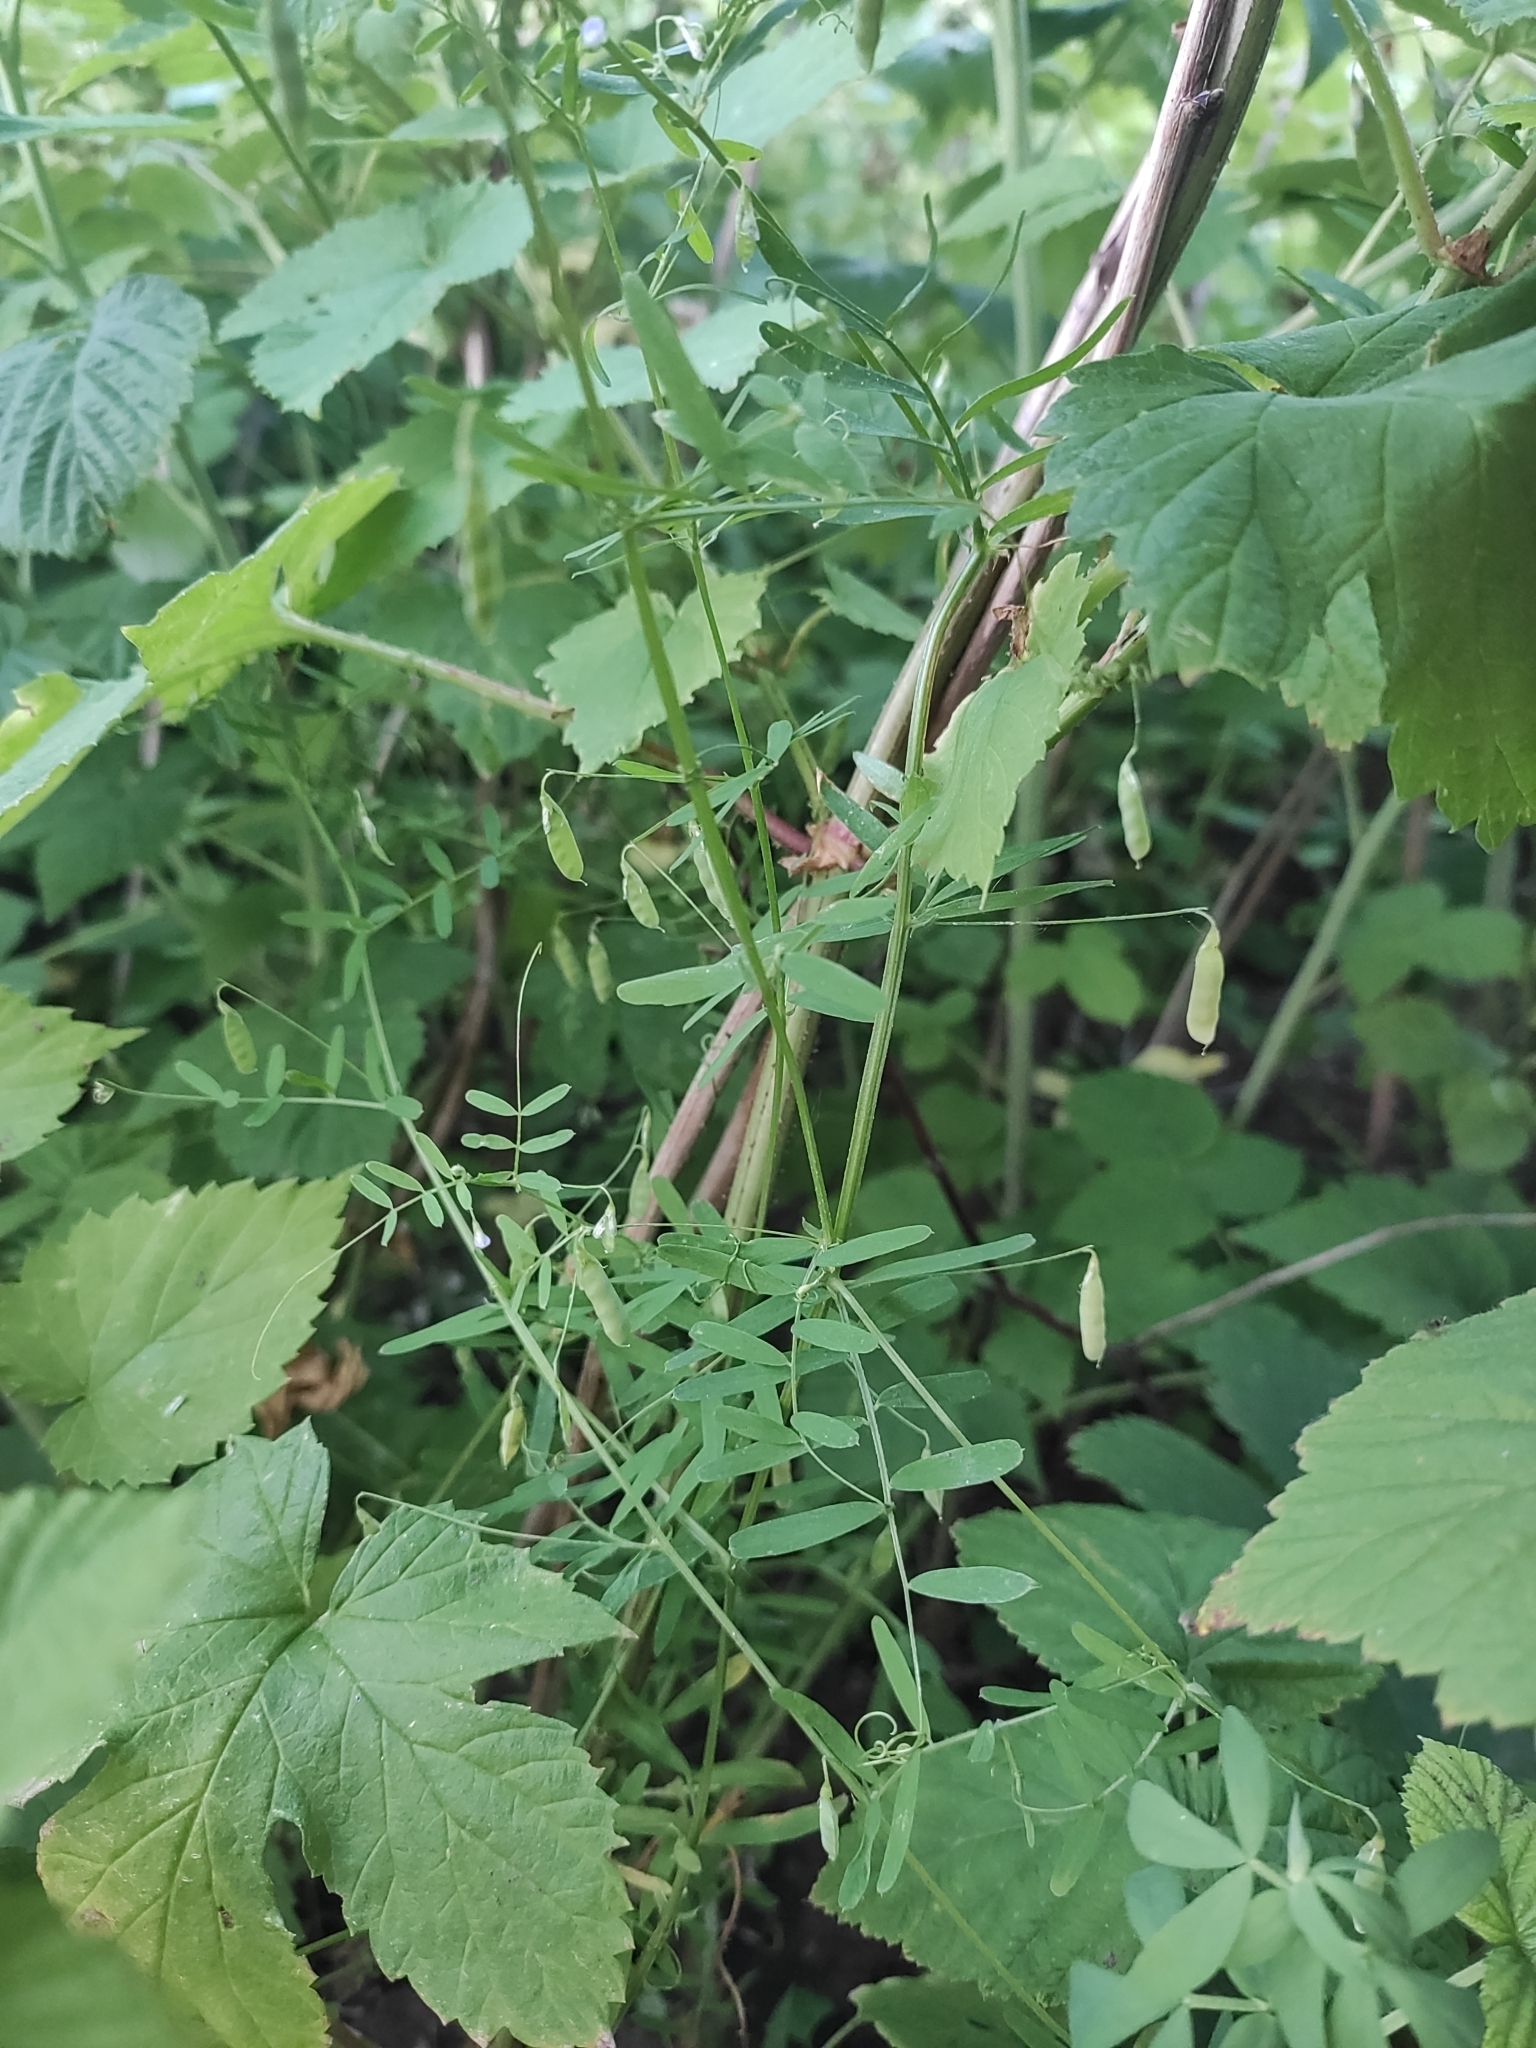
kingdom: Plantae
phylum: Tracheophyta
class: Magnoliopsida
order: Fabales
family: Fabaceae
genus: Vicia
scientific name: Vicia tetrasperma
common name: Smooth tare
